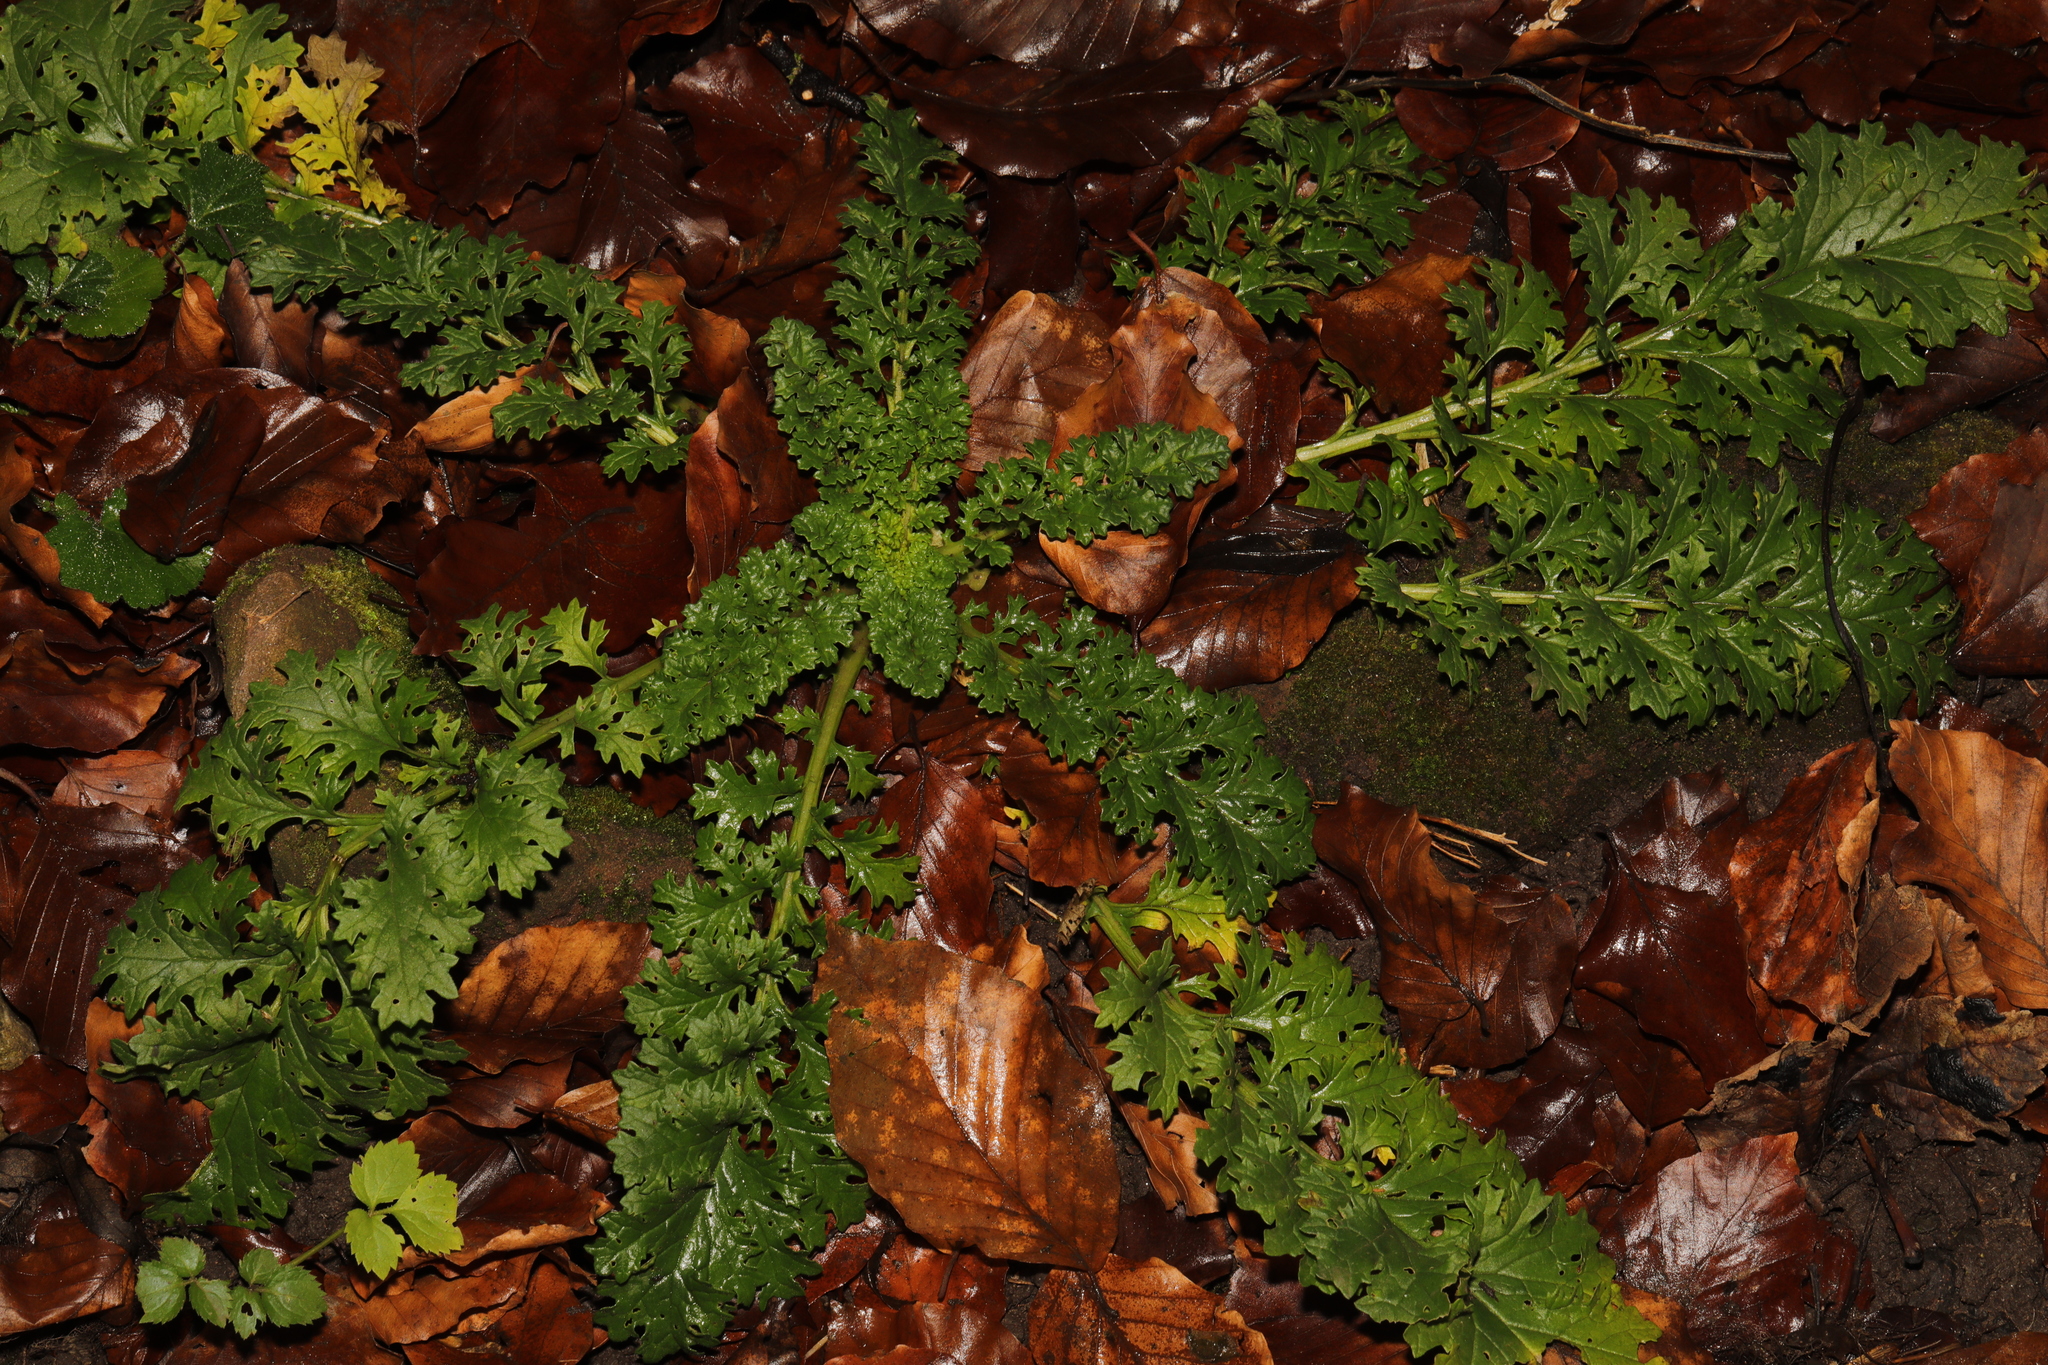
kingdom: Plantae
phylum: Tracheophyta
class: Magnoliopsida
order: Asterales
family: Asteraceae
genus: Jacobaea
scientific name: Jacobaea vulgaris
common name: Stinking willie
